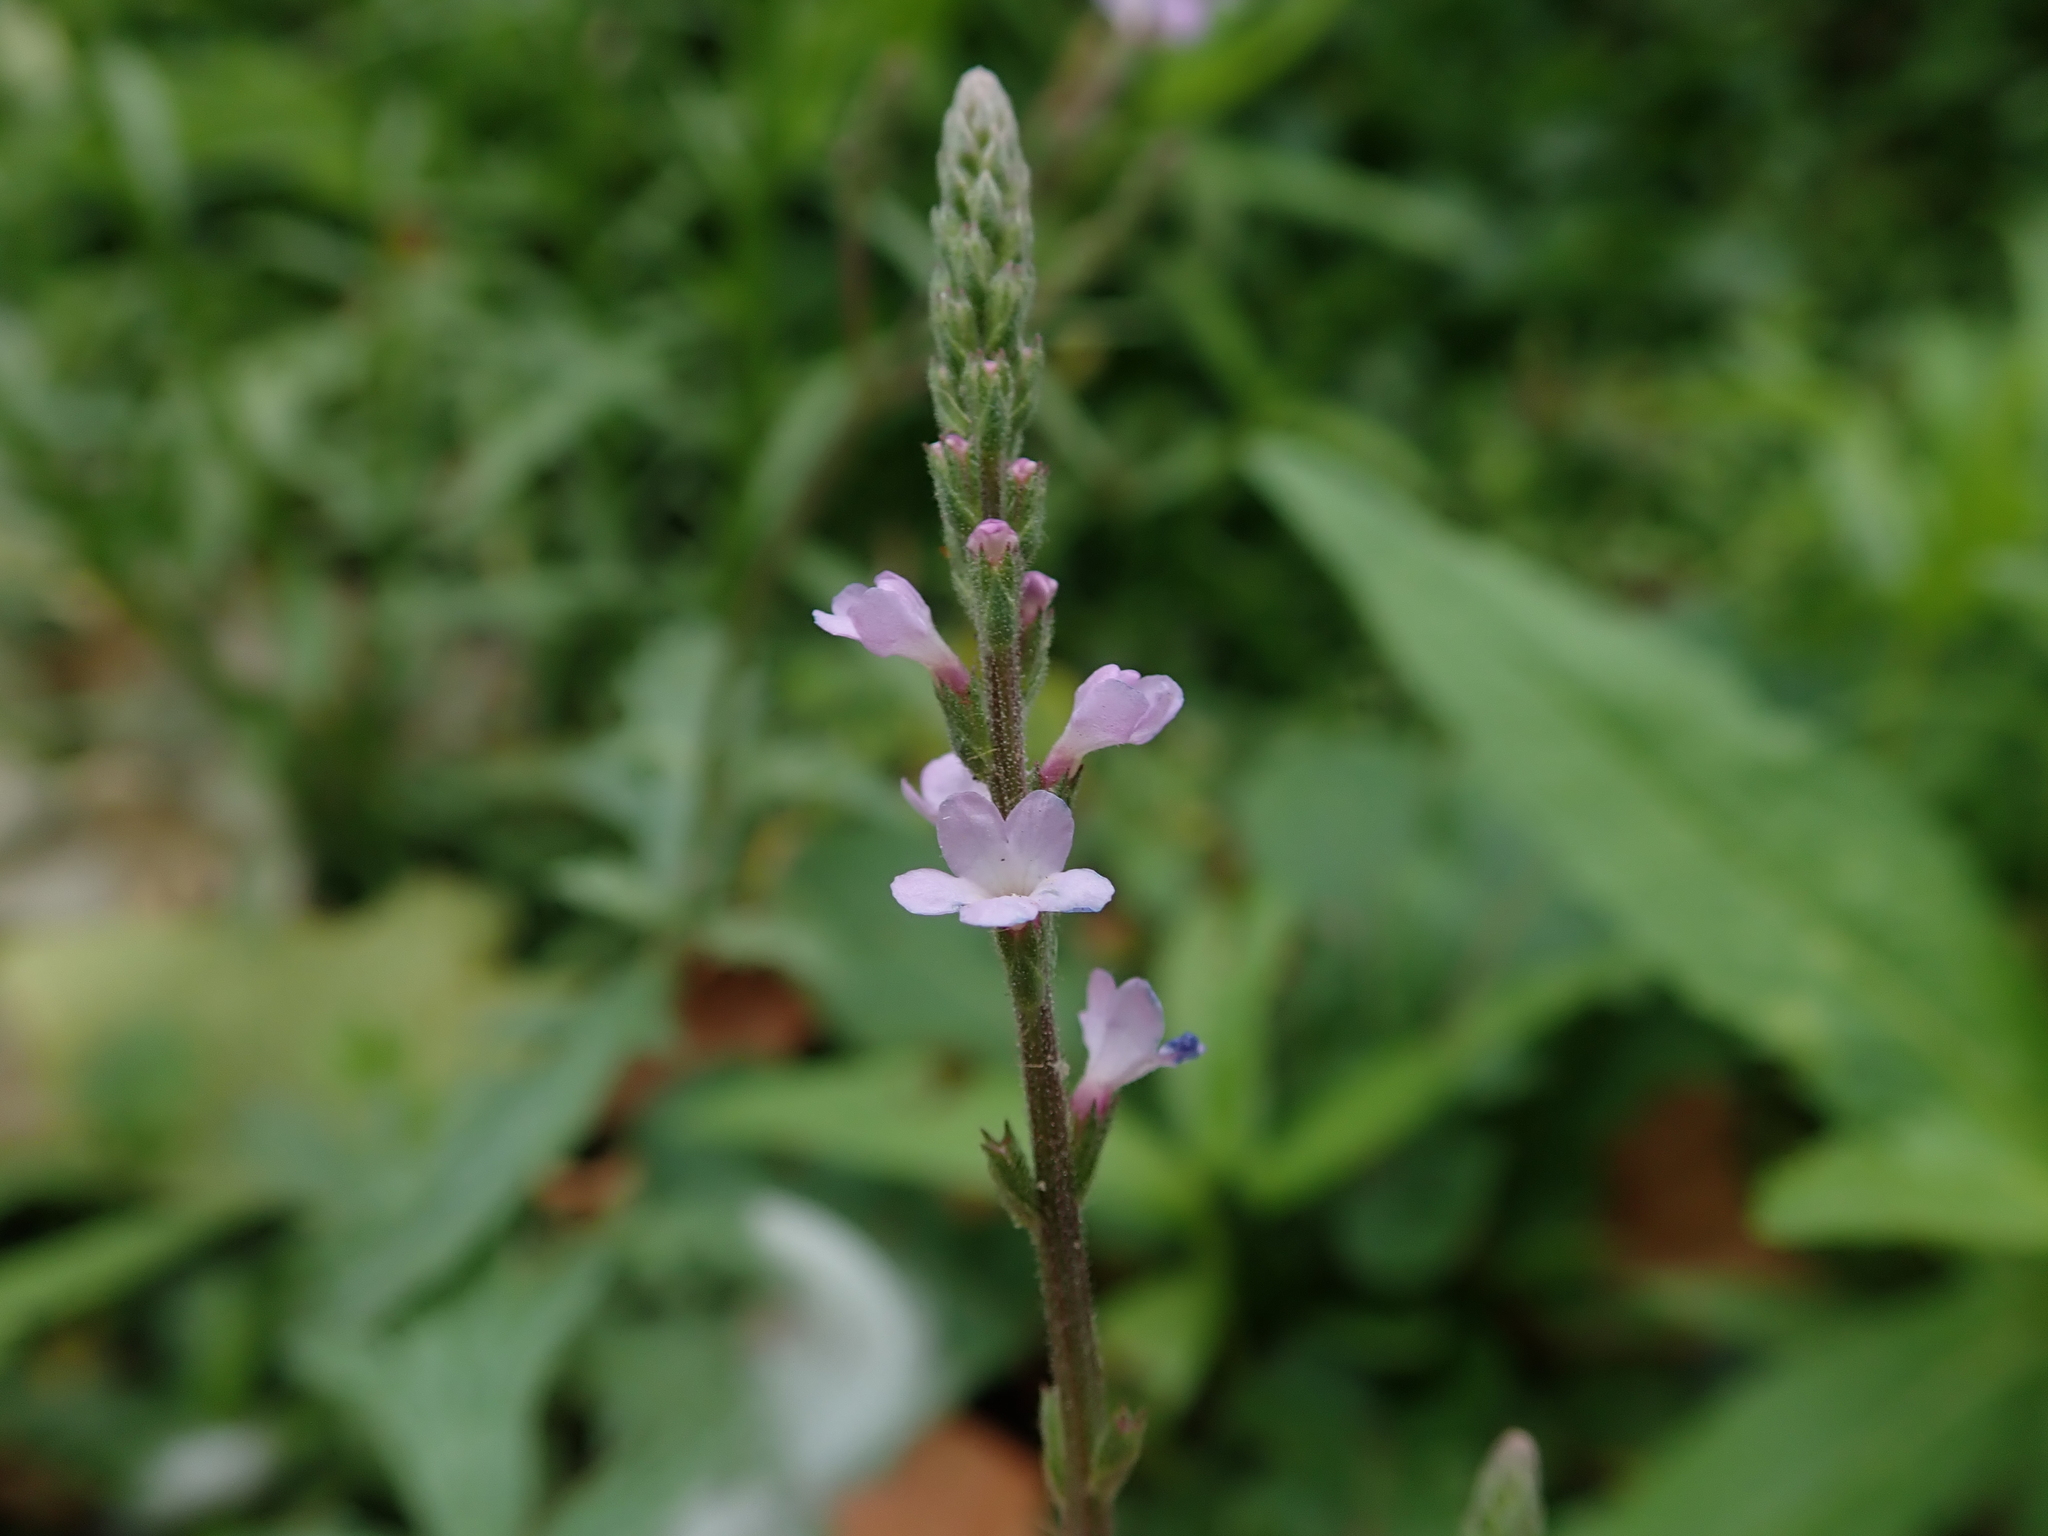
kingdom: Plantae
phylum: Tracheophyta
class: Magnoliopsida
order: Lamiales
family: Verbenaceae
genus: Verbena
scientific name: Verbena officinalis
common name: Vervain
